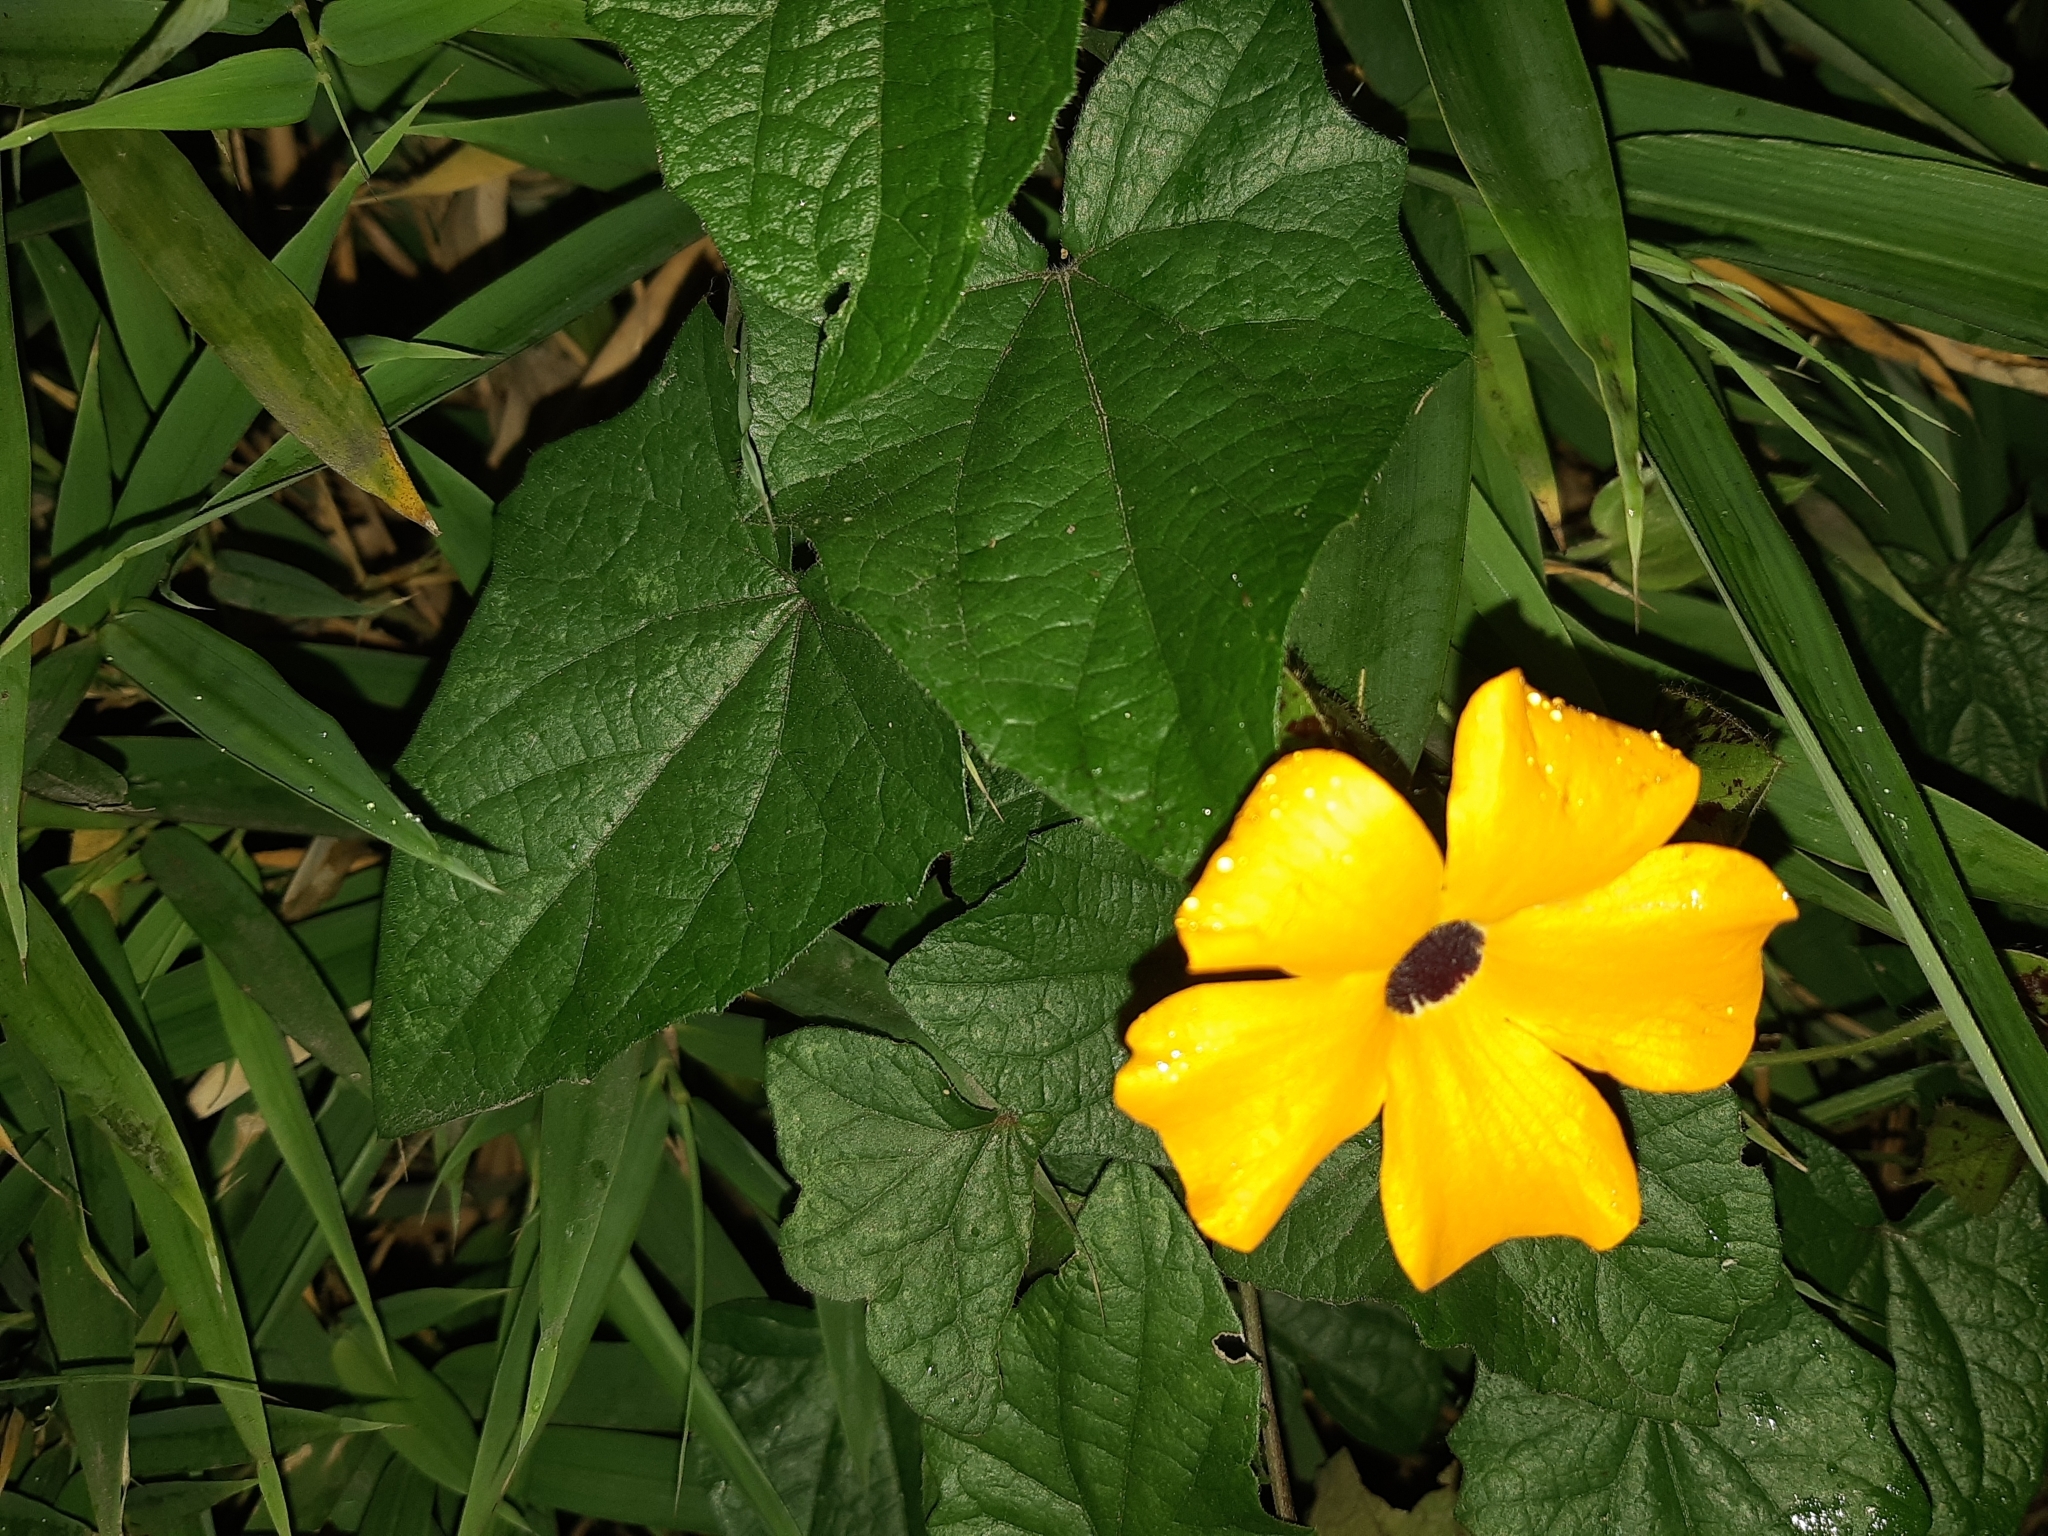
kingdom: Plantae
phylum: Tracheophyta
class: Magnoliopsida
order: Lamiales
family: Acanthaceae
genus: Thunbergia
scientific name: Thunbergia alata
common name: Blackeyed susan vine
